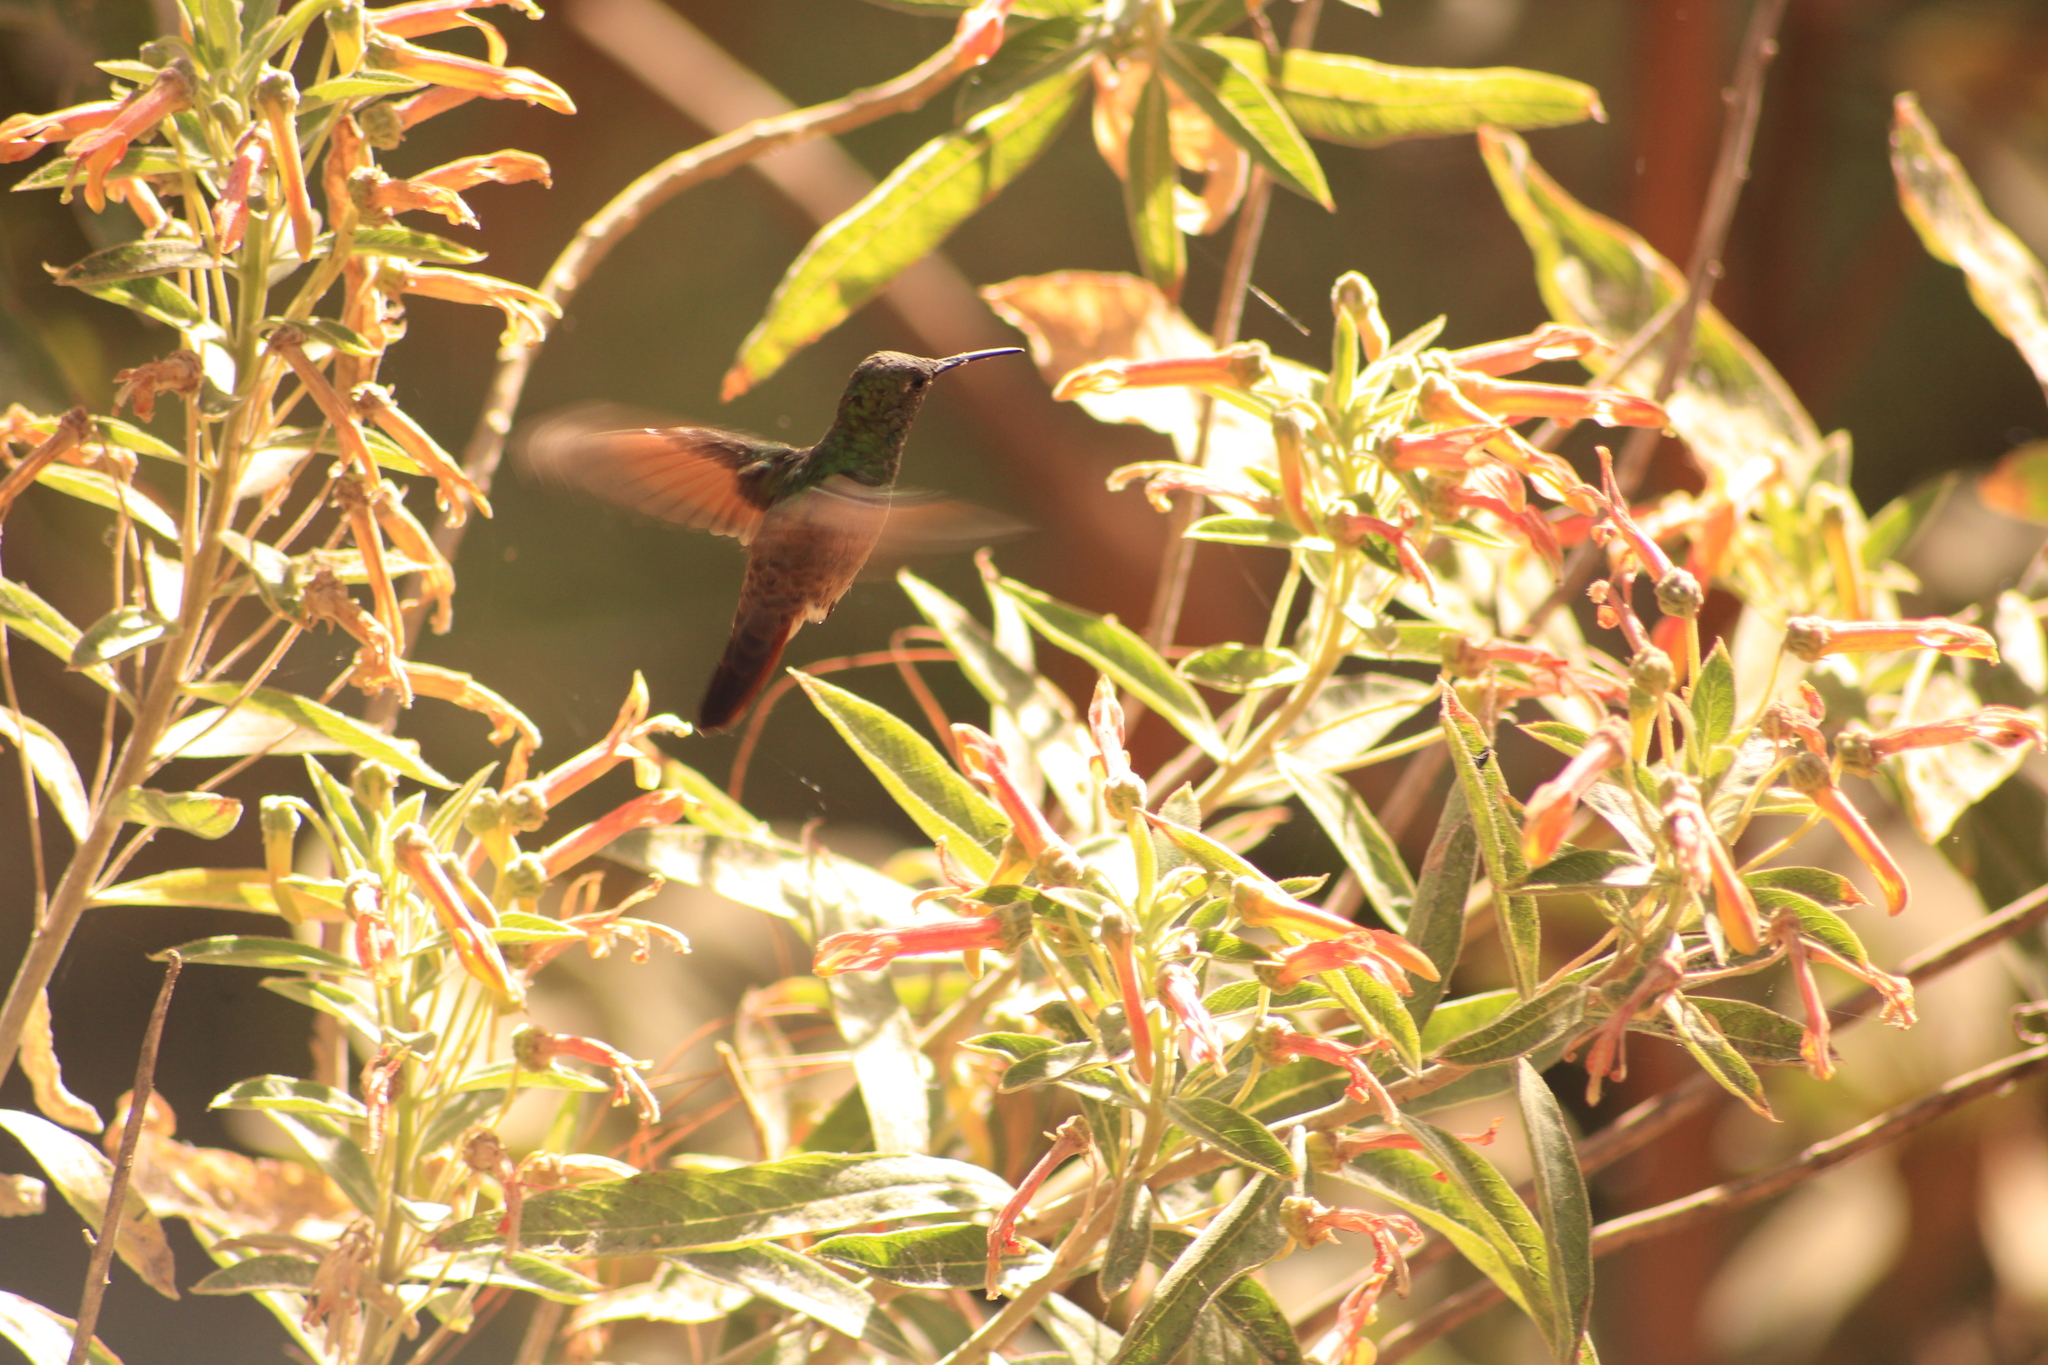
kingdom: Animalia
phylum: Chordata
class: Aves
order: Apodiformes
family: Trochilidae
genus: Saucerottia
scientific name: Saucerottia beryllina
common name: Berylline hummingbird
